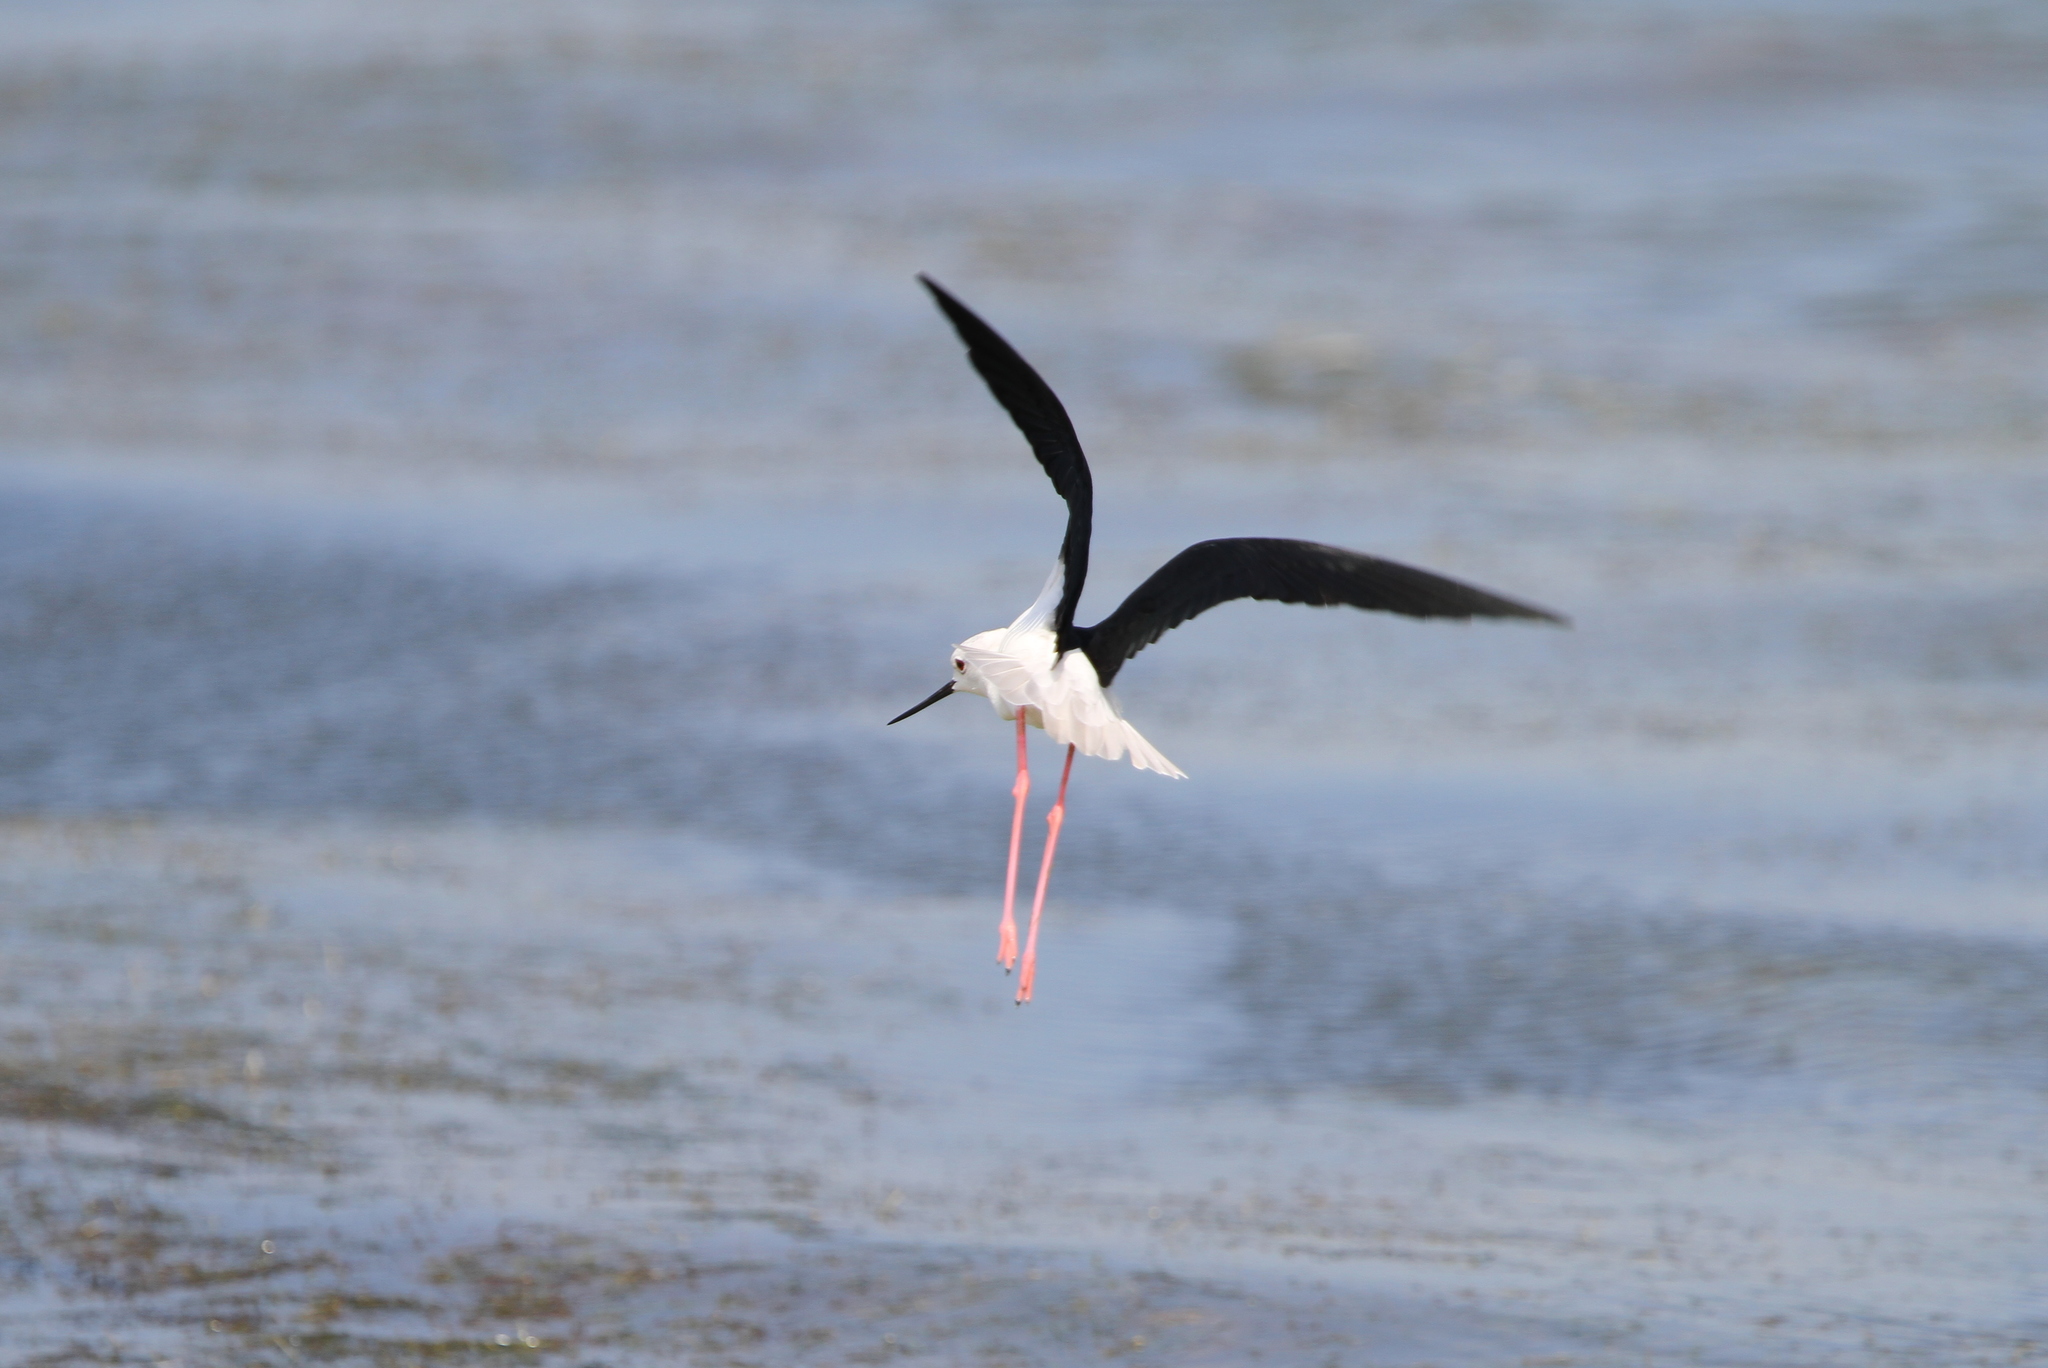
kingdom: Animalia
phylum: Chordata
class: Aves
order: Charadriiformes
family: Recurvirostridae
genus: Himantopus
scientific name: Himantopus himantopus
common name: Black-winged stilt
